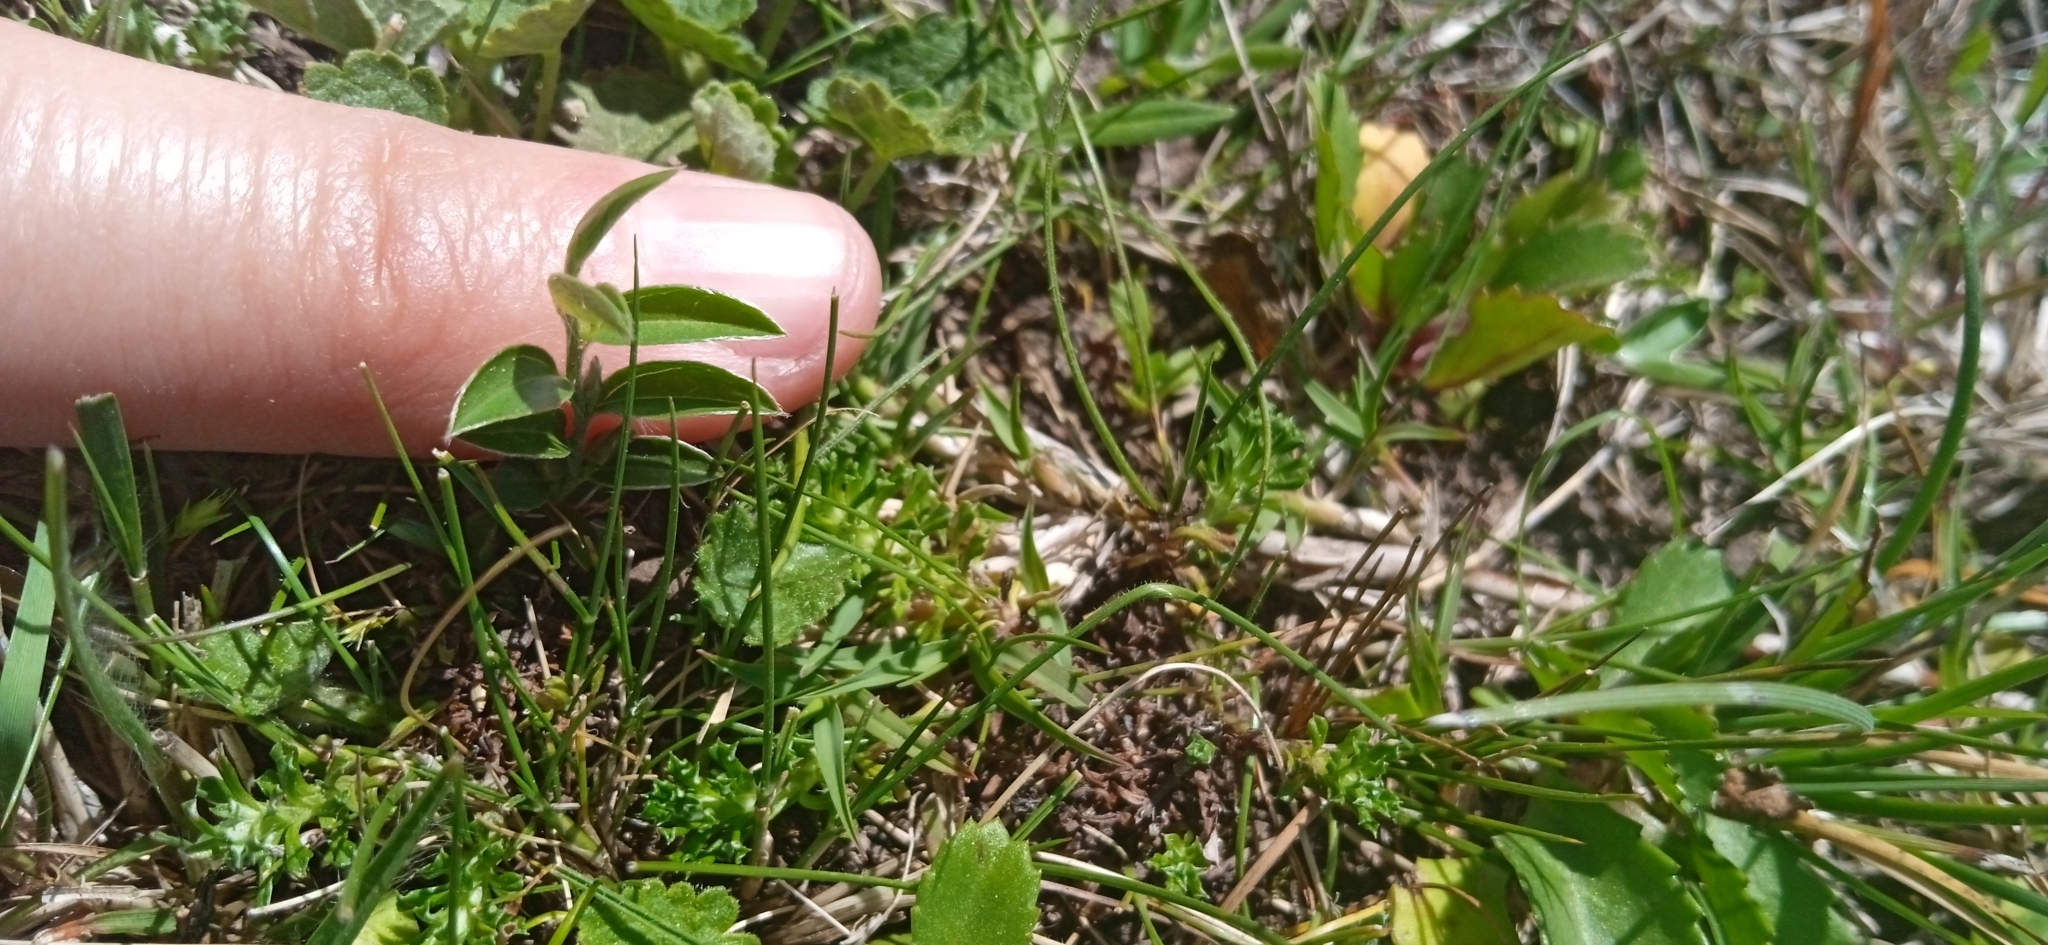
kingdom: Plantae
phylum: Tracheophyta
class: Magnoliopsida
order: Solanales
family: Convolvulaceae
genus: Evolvulus
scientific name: Evolvulus sericeus
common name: Blue dots
